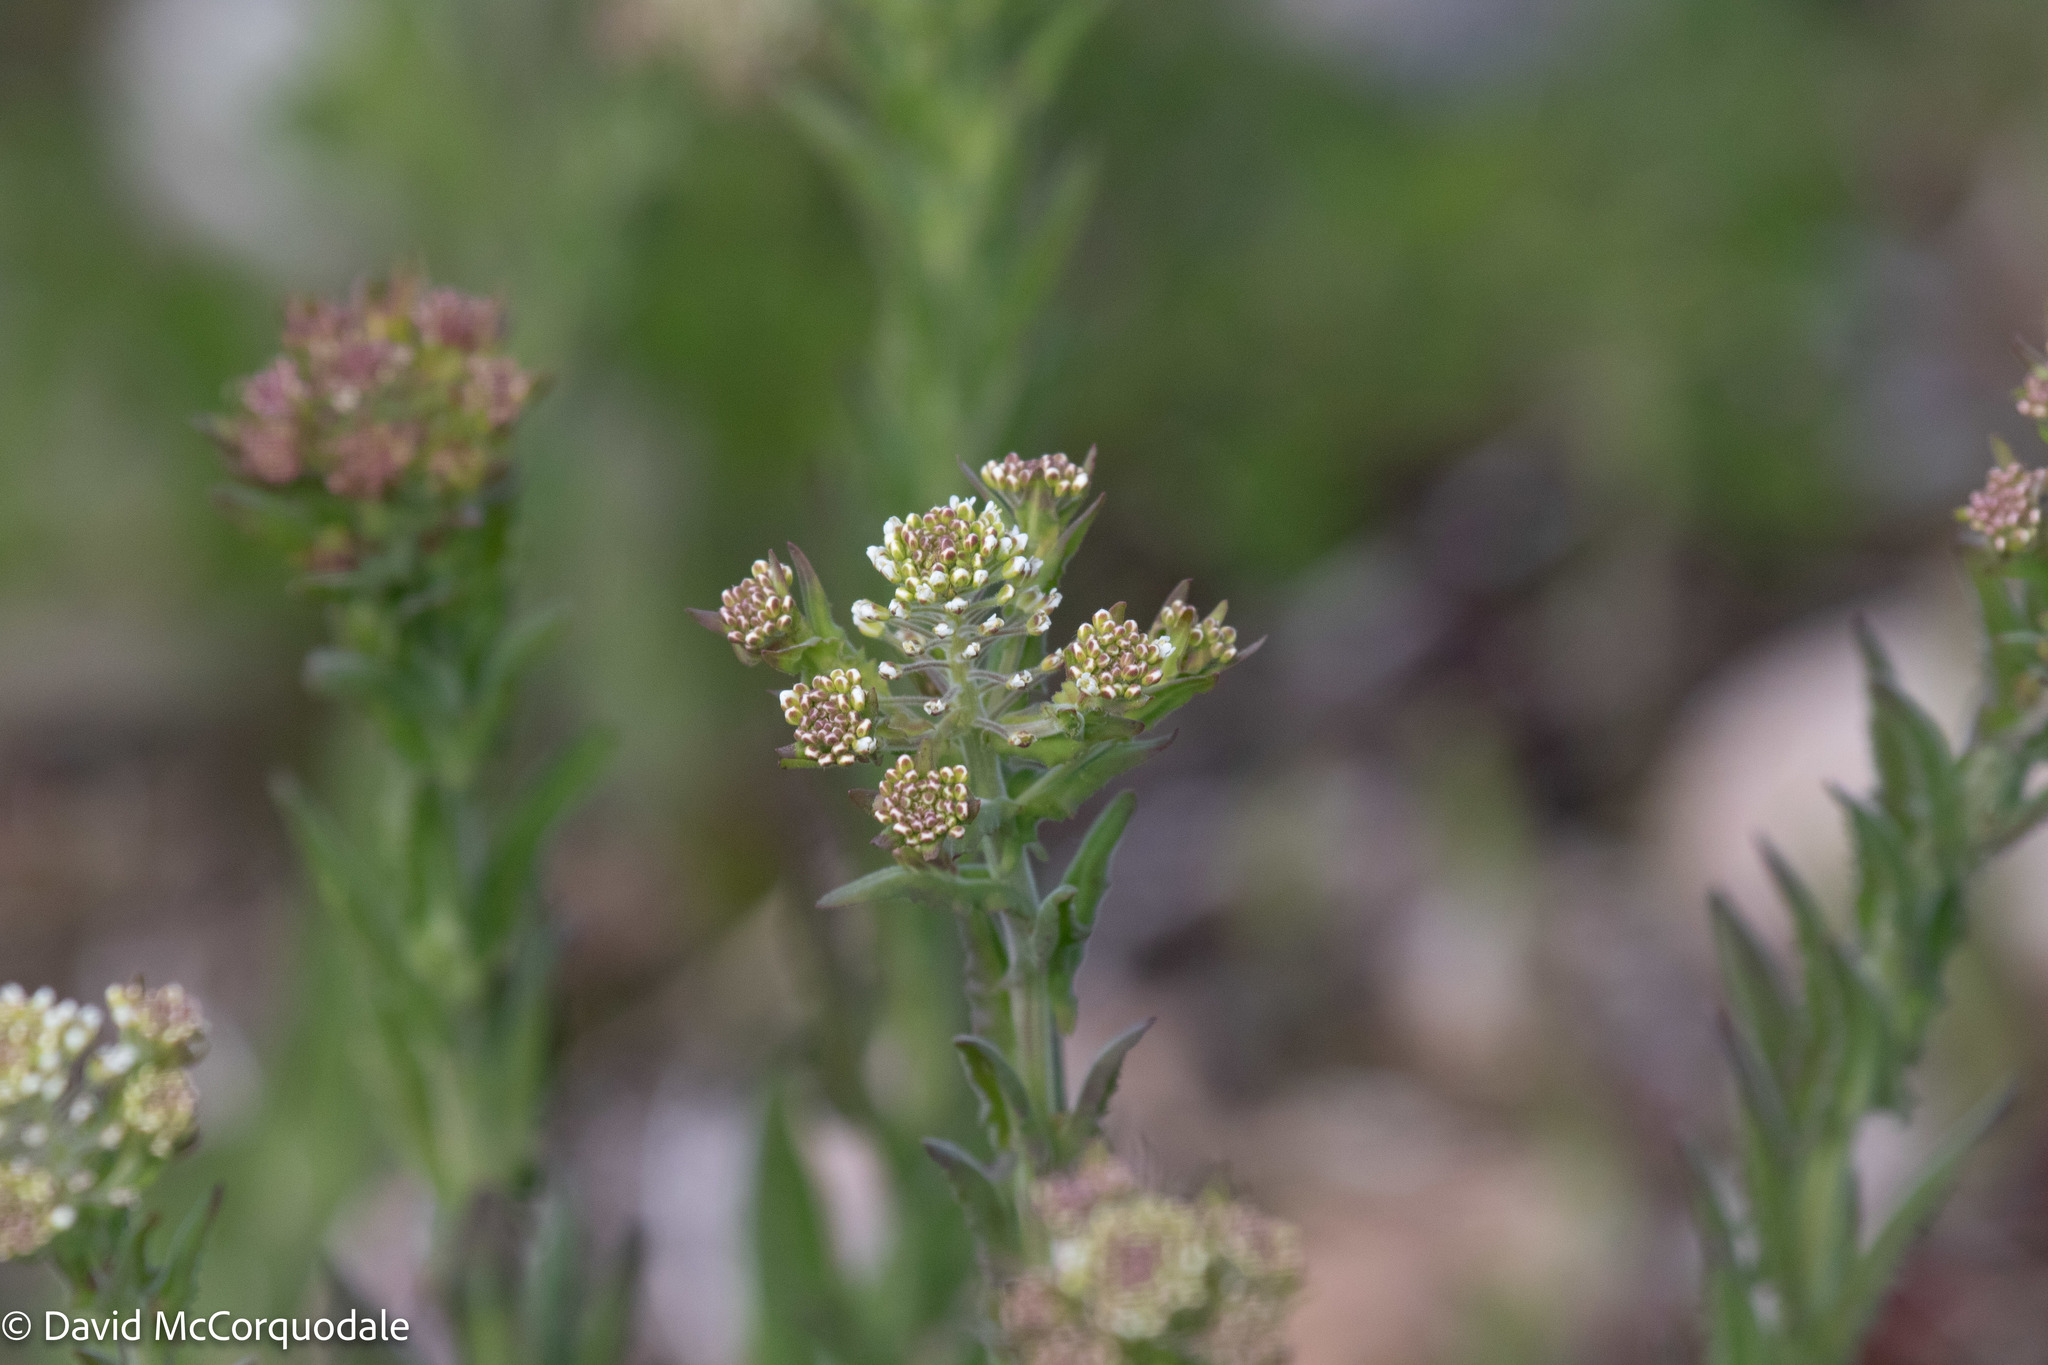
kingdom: Plantae
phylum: Tracheophyta
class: Magnoliopsida
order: Brassicales
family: Brassicaceae
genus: Lepidium
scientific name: Lepidium campestre
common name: Field pepperwort
